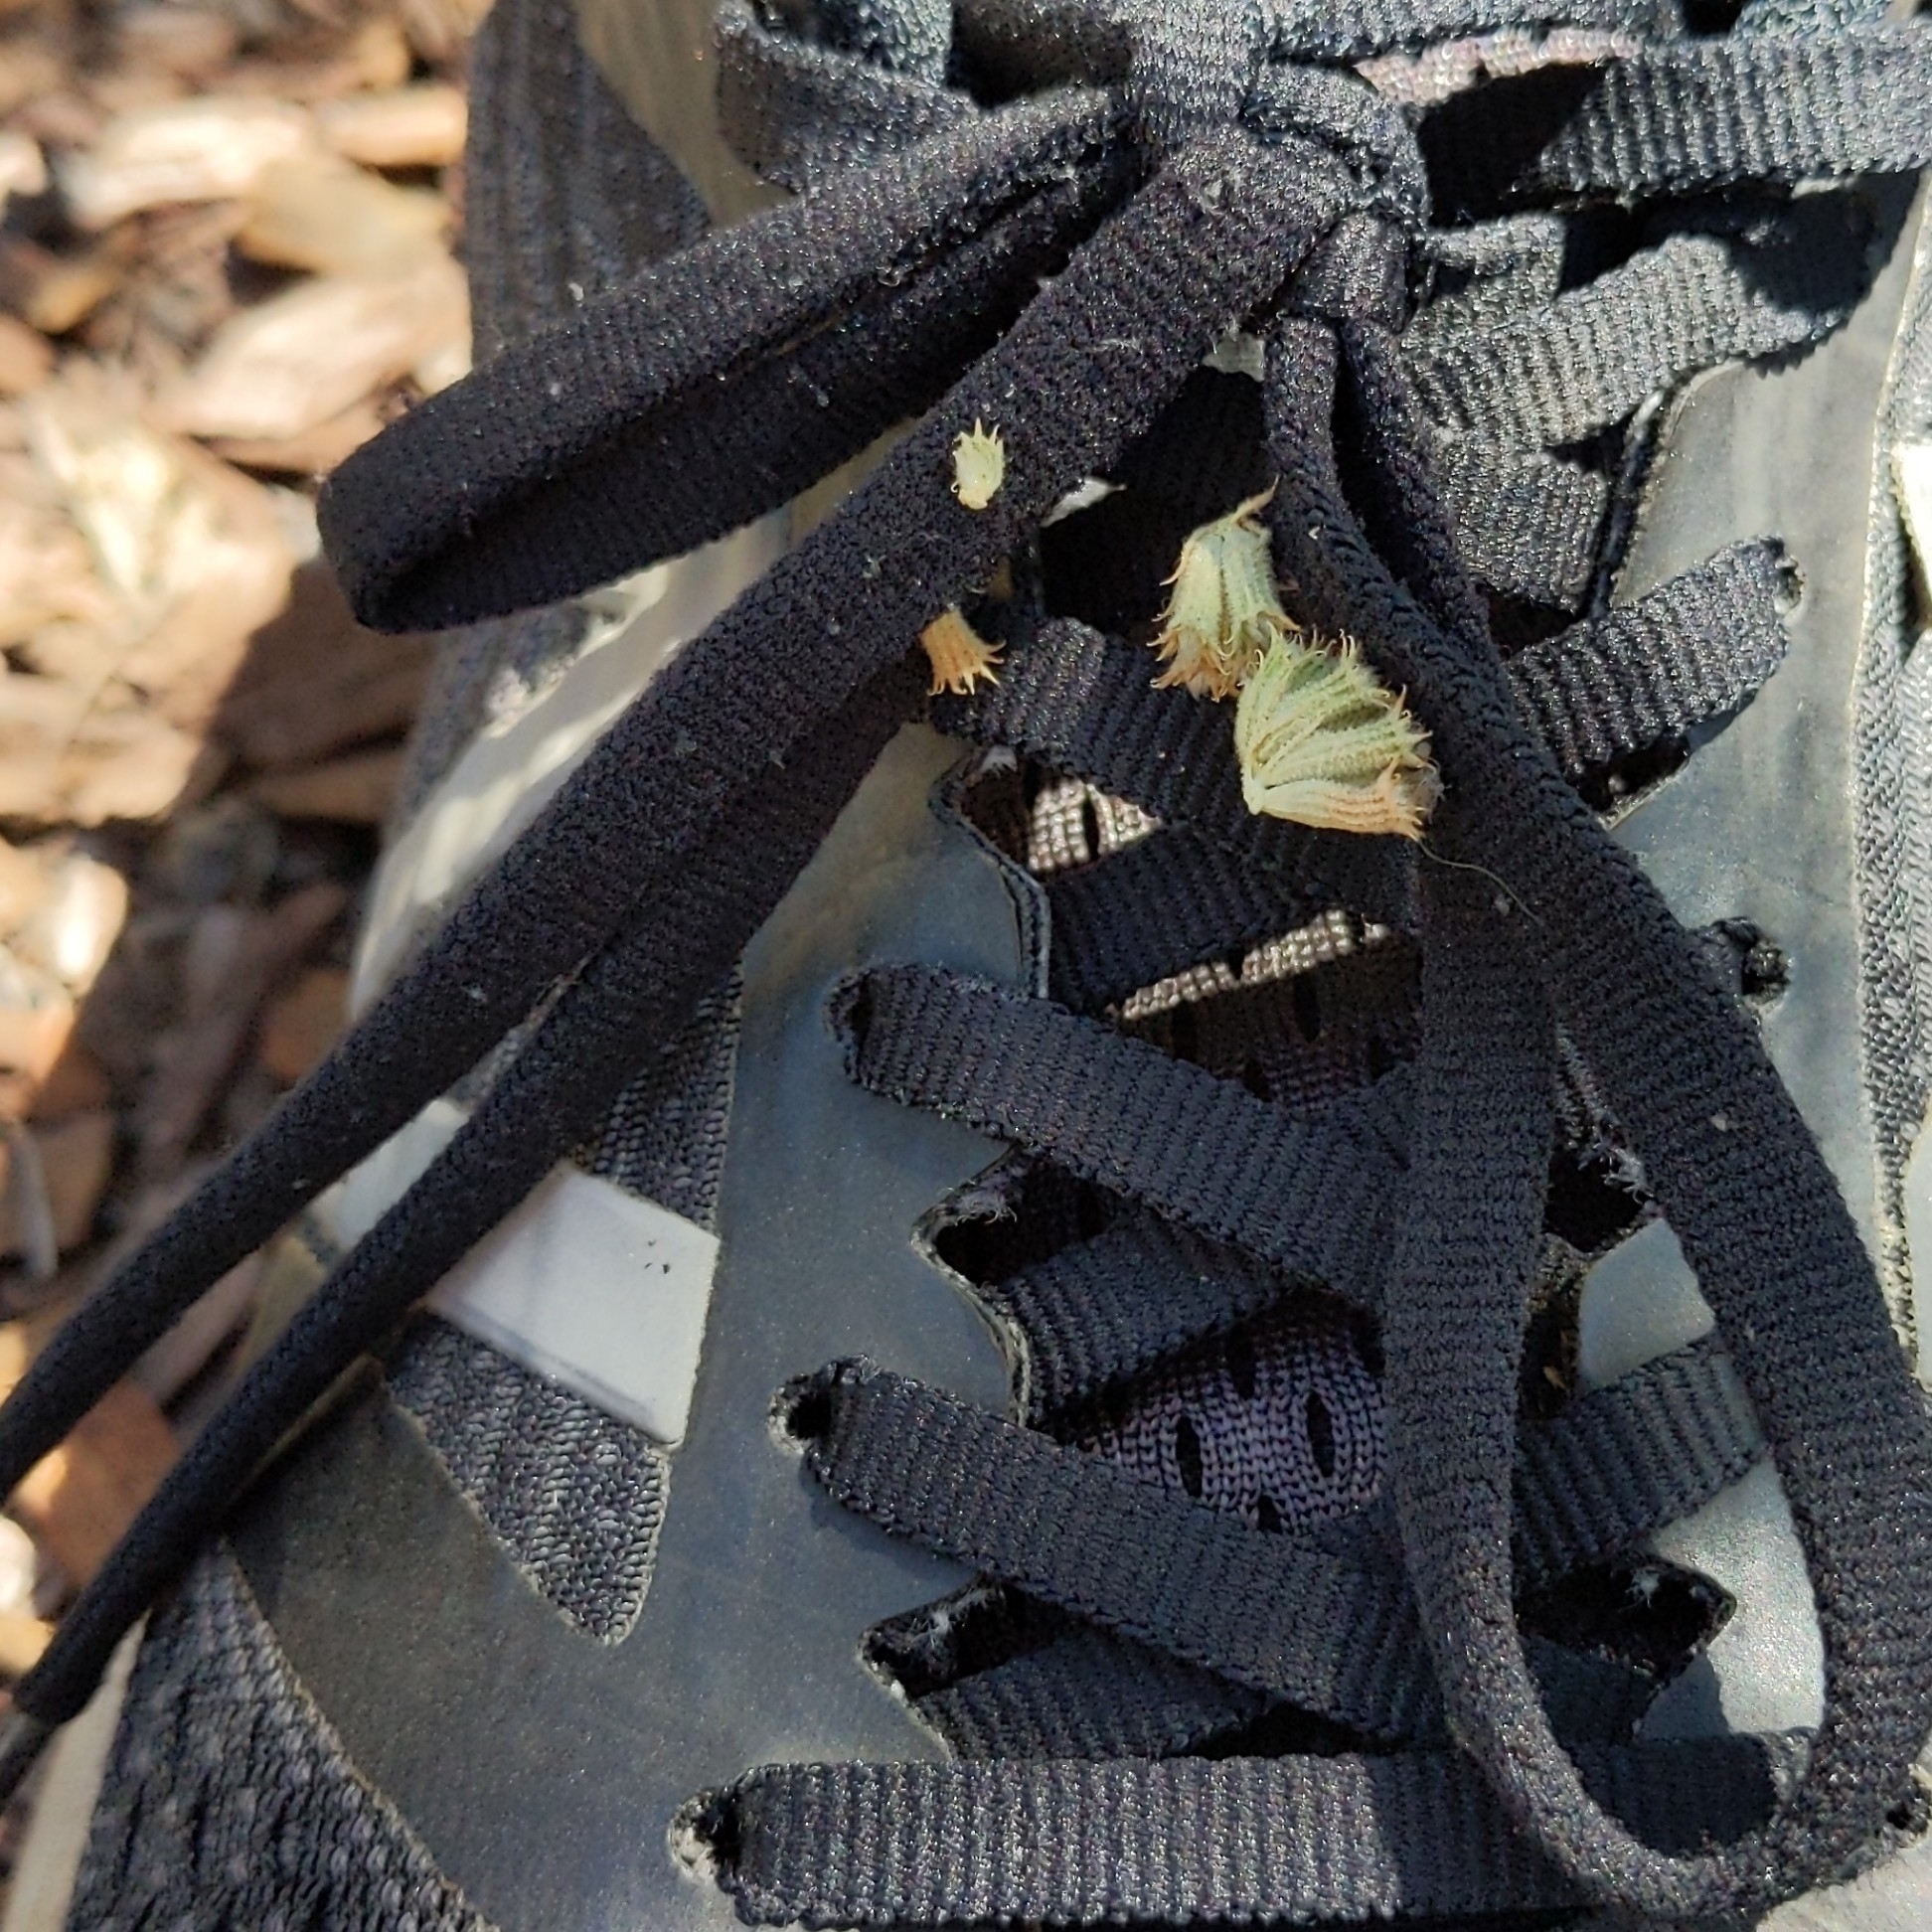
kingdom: Plantae
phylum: Tracheophyta
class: Magnoliopsida
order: Lamiales
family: Lamiaceae
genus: Marrubium
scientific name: Marrubium vulgare
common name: Horehound
